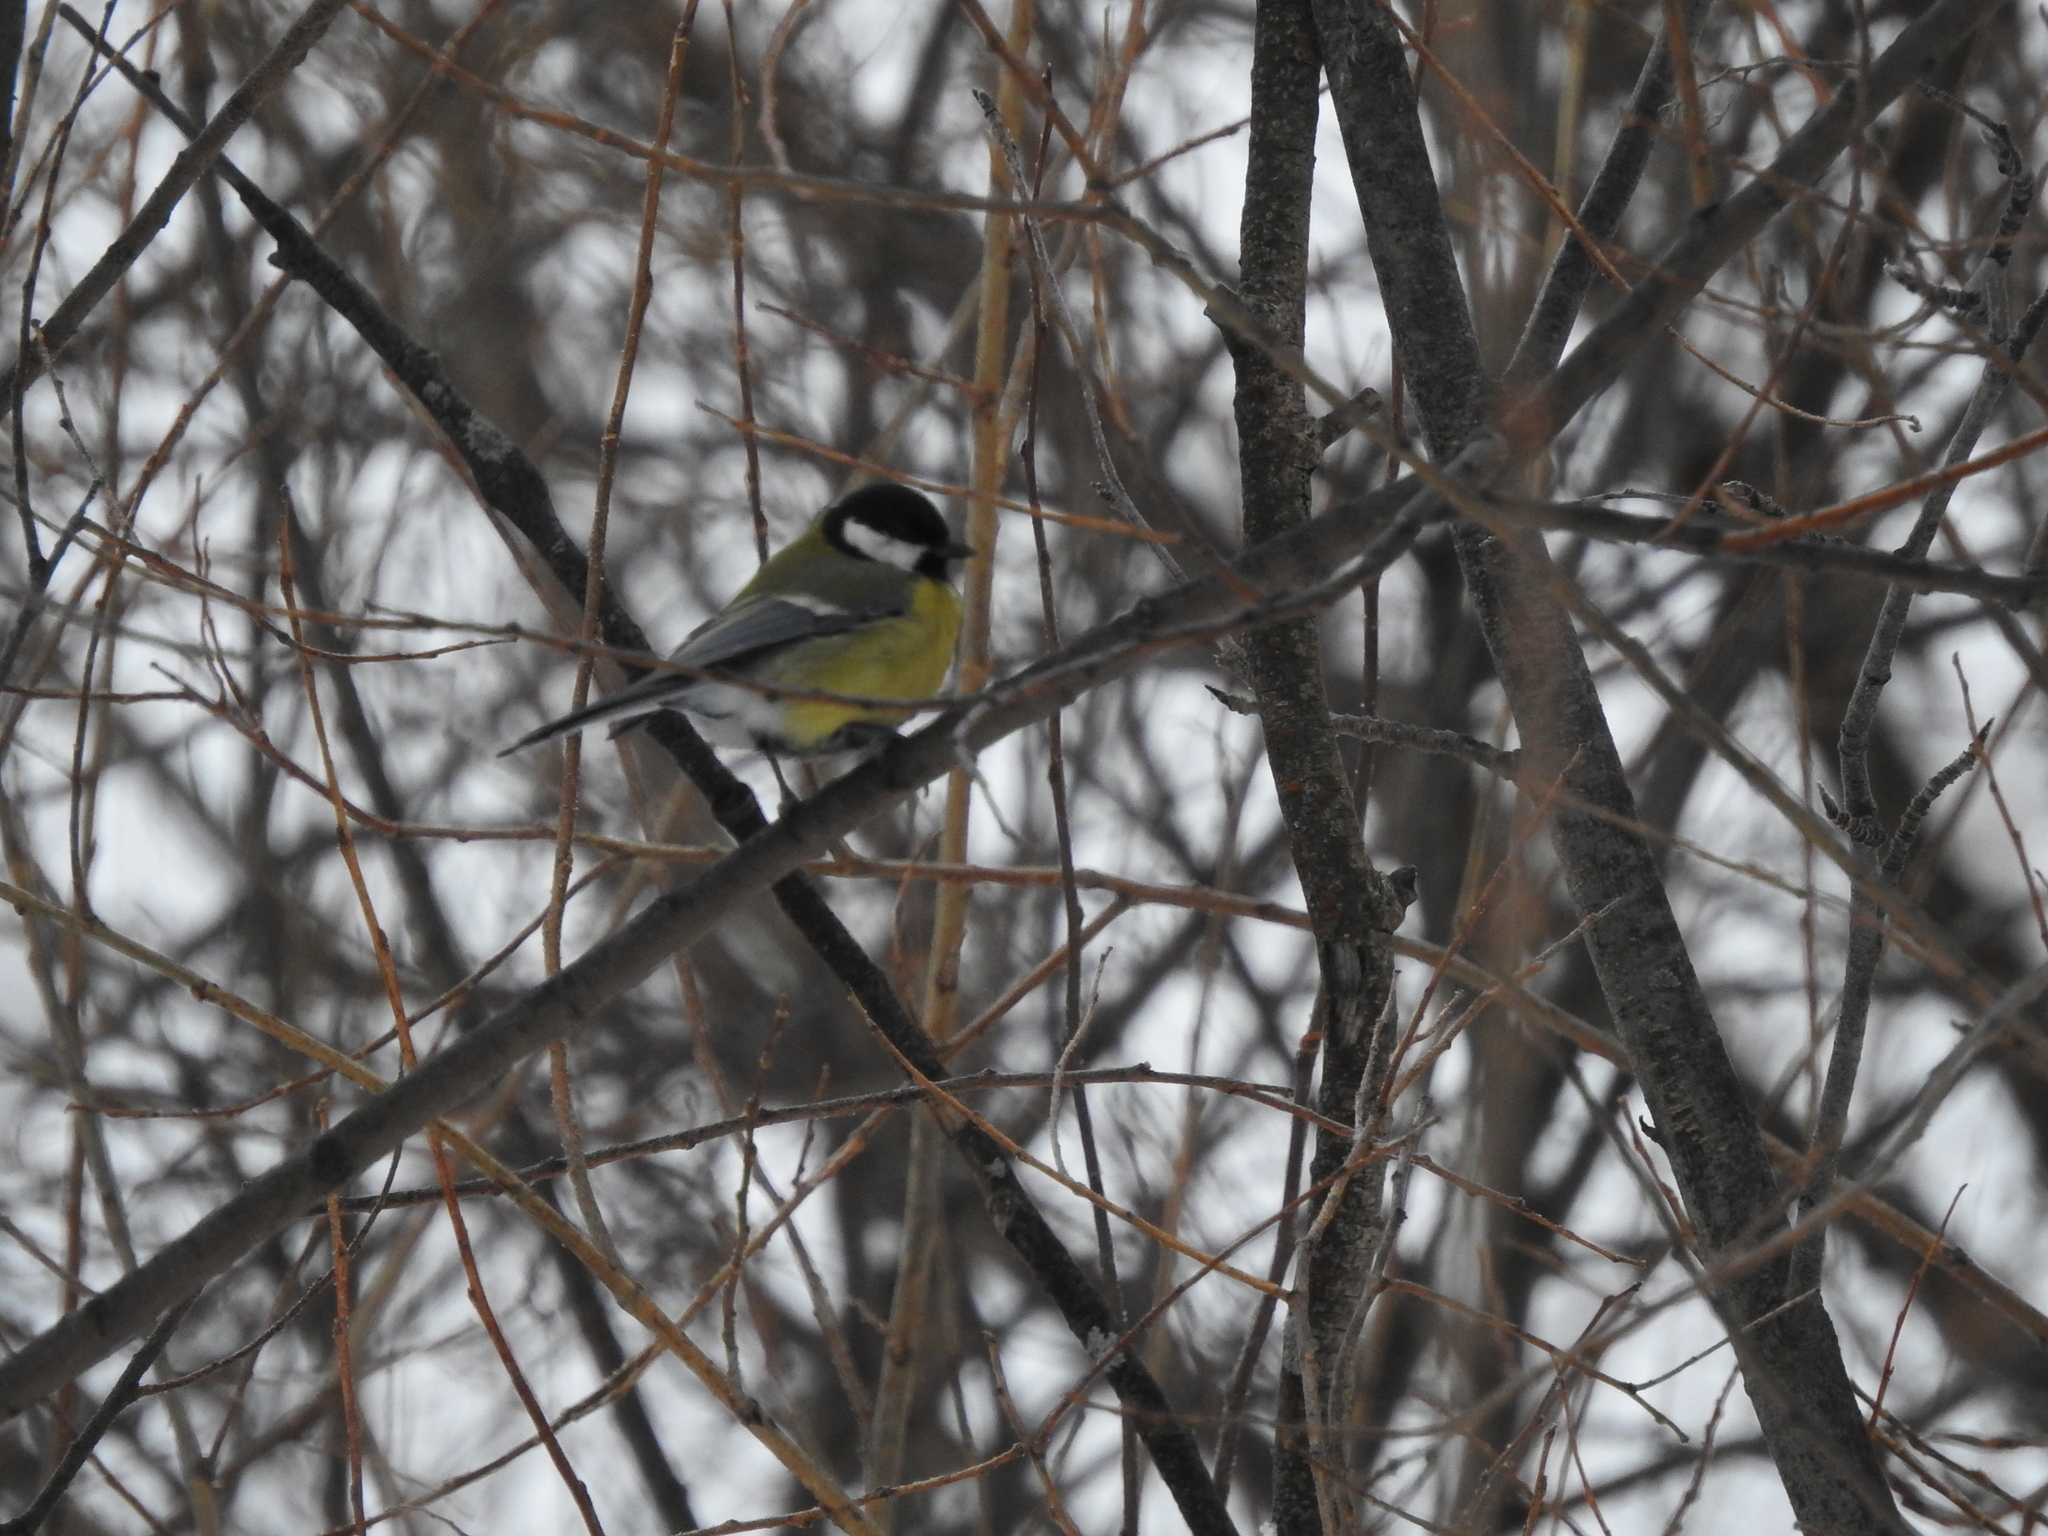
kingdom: Animalia
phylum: Chordata
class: Aves
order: Passeriformes
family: Paridae
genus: Parus
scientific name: Parus major
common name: Great tit
